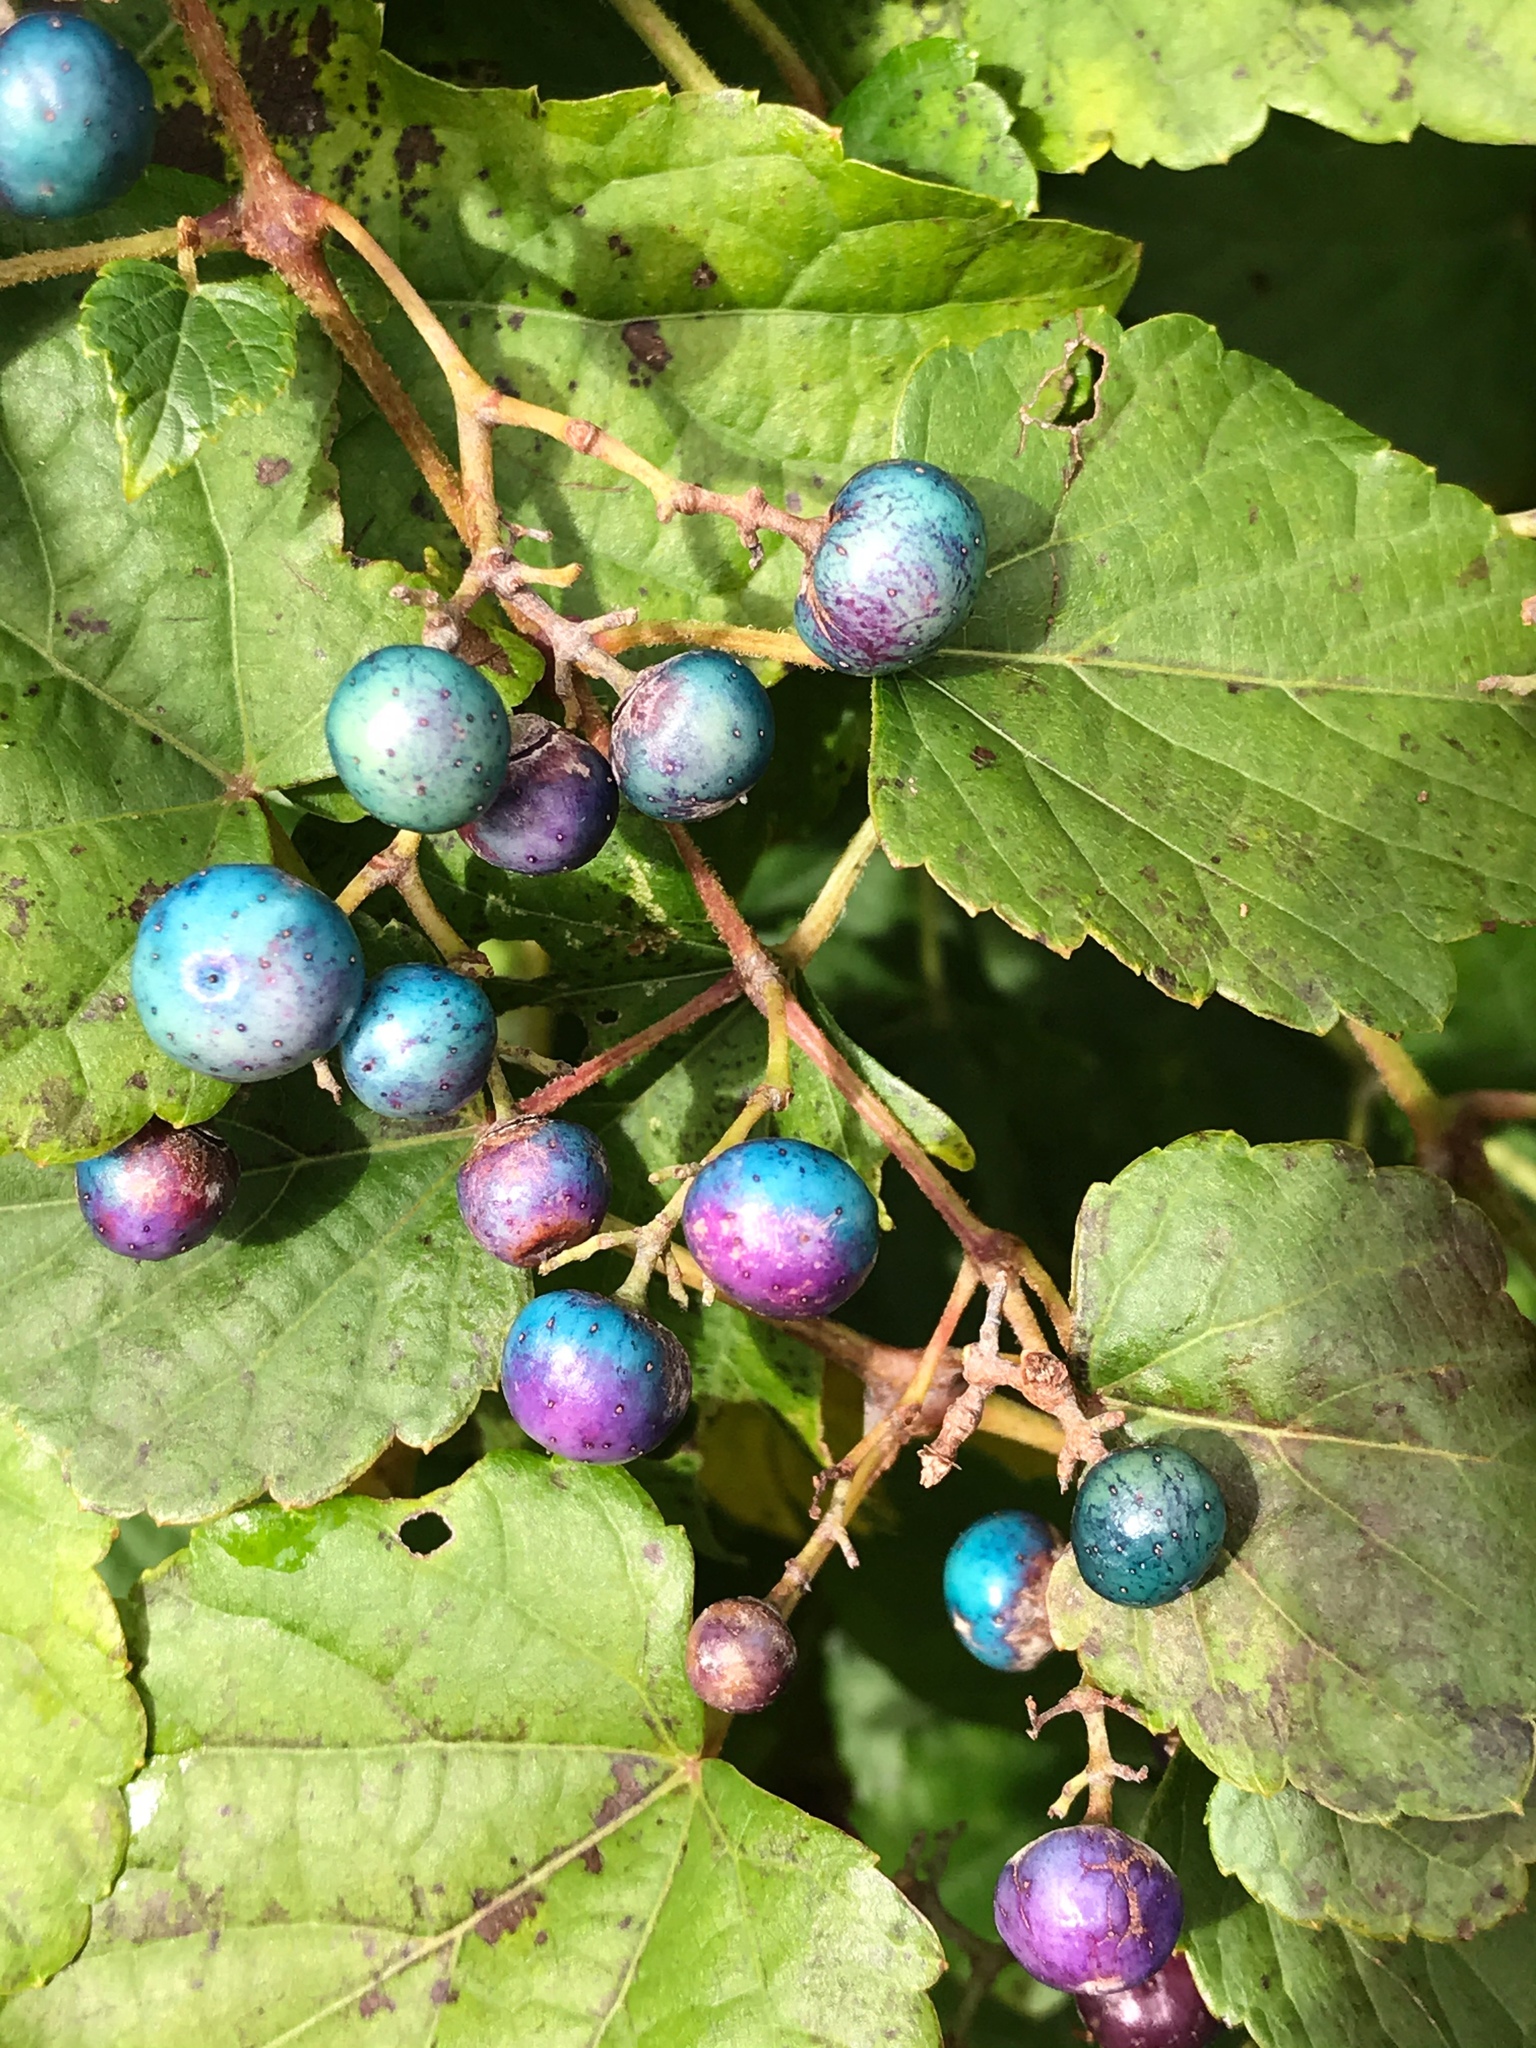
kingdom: Plantae
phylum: Tracheophyta
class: Magnoliopsida
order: Vitales
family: Vitaceae
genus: Ampelopsis
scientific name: Ampelopsis glandulosa
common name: Amur peppervine
